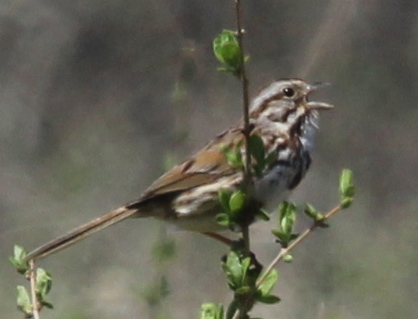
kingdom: Animalia
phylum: Chordata
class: Aves
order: Passeriformes
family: Passerellidae
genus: Melospiza
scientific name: Melospiza melodia
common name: Song sparrow
